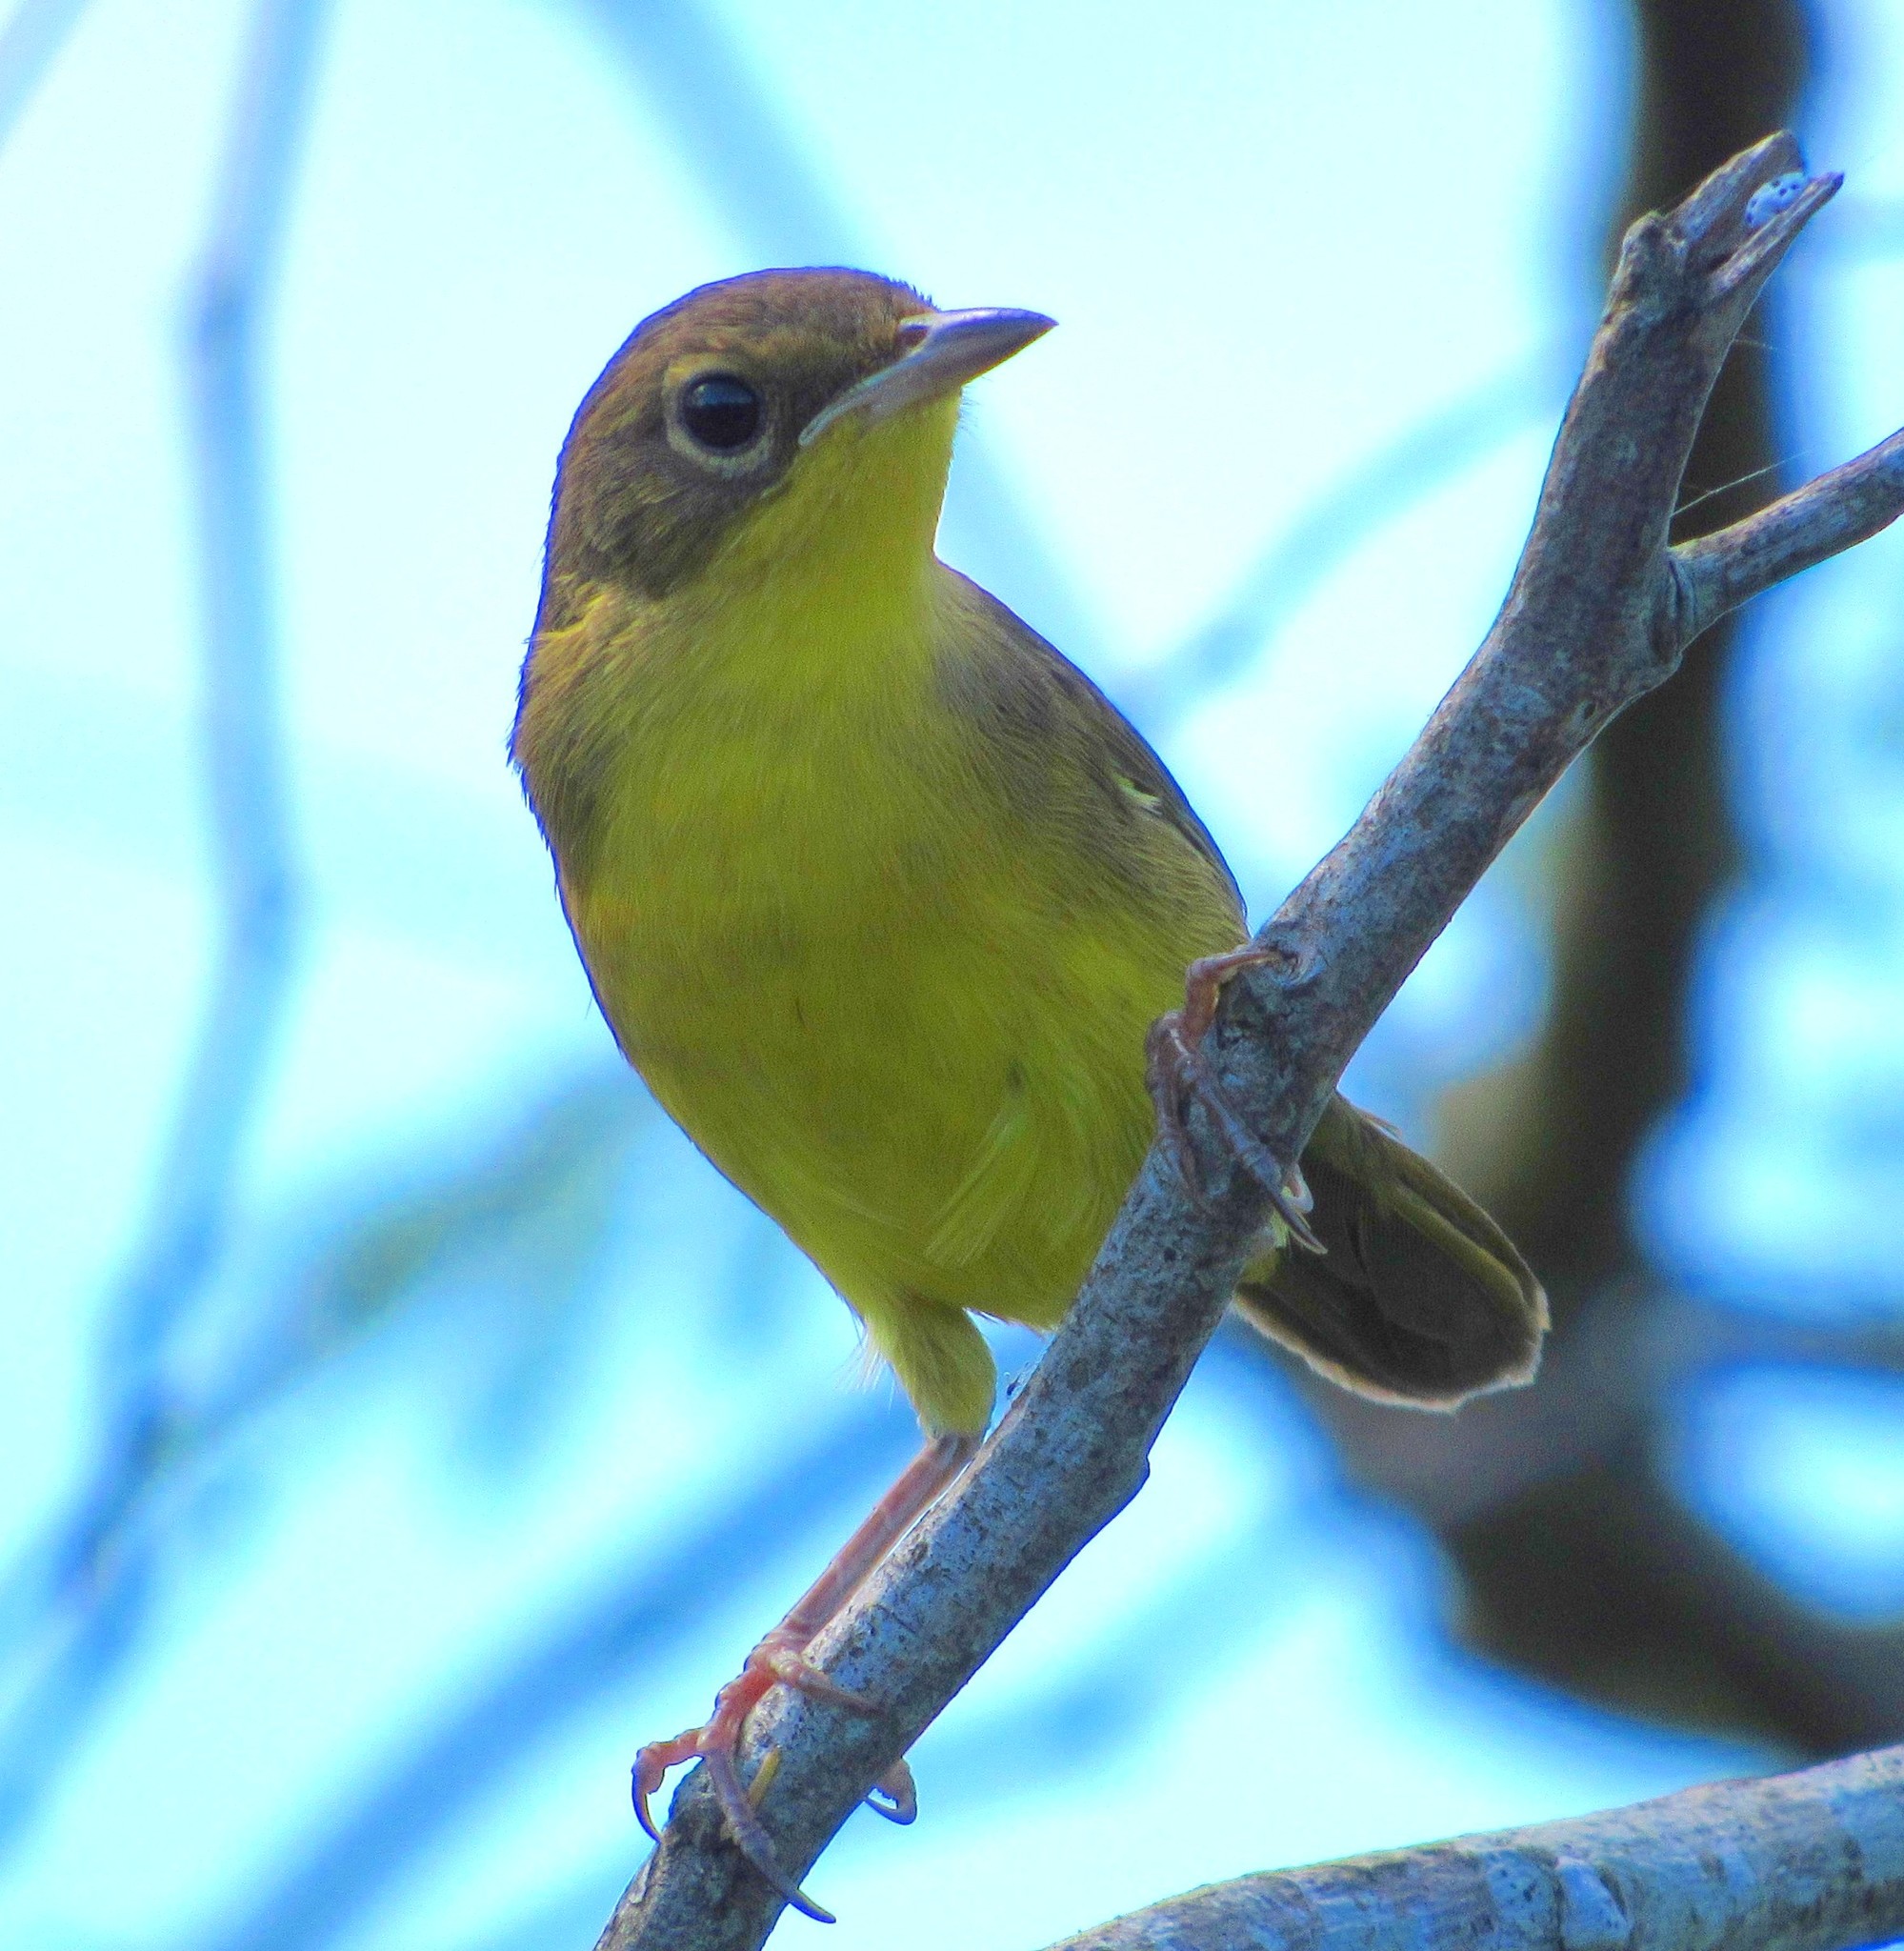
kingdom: Animalia
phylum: Chordata
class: Aves
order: Passeriformes
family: Parulidae
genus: Geothlypis
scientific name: Geothlypis velata
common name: Southern yellowthroat
